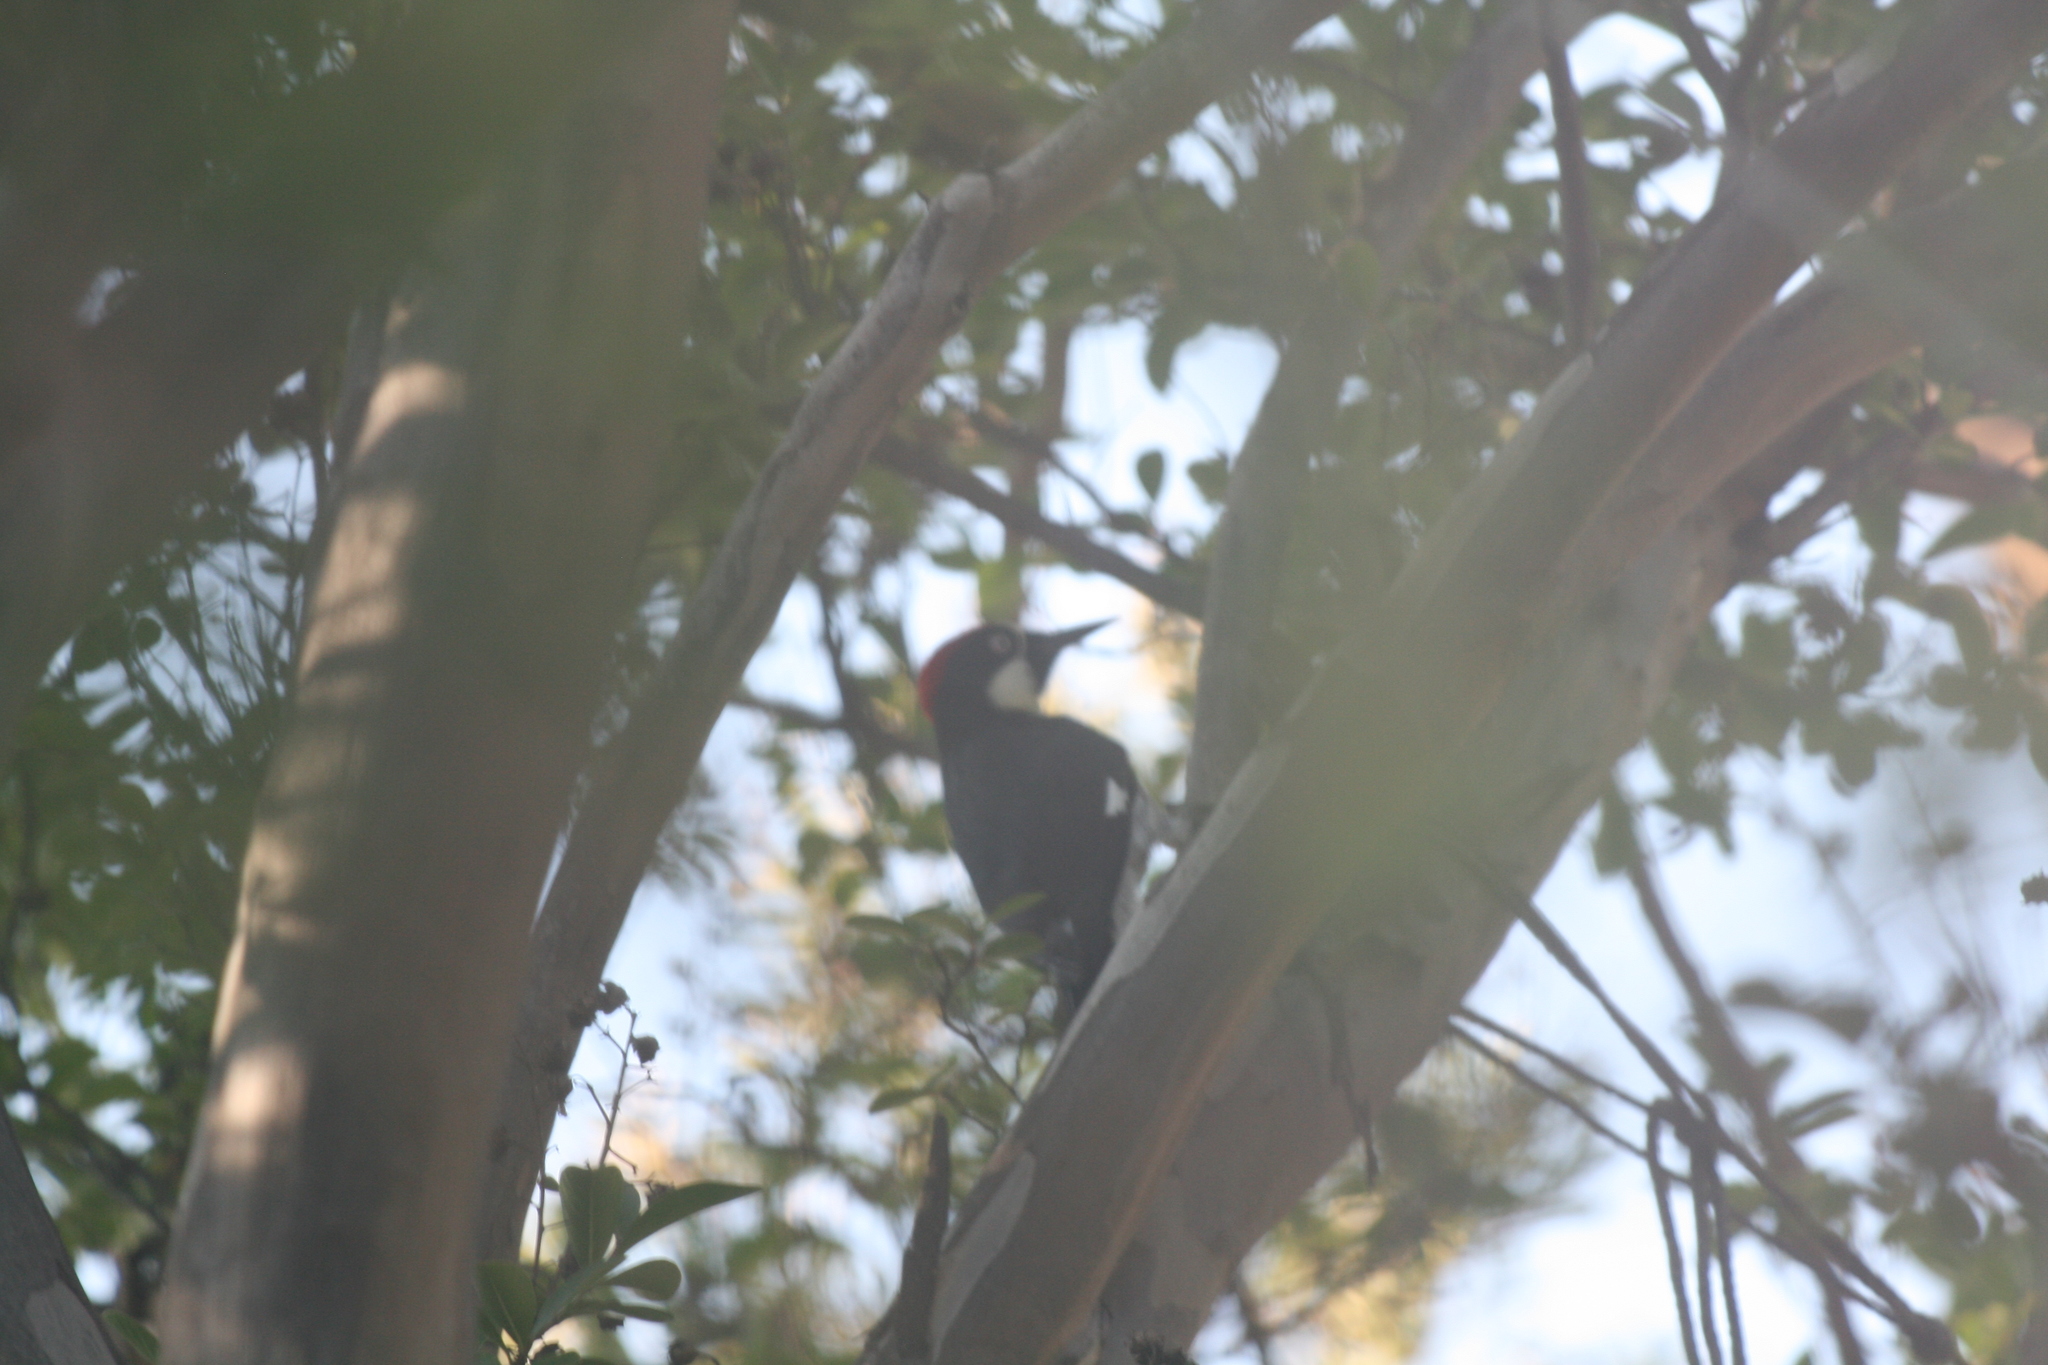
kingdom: Animalia
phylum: Chordata
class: Aves
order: Piciformes
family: Picidae
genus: Melanerpes
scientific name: Melanerpes formicivorus
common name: Acorn woodpecker
